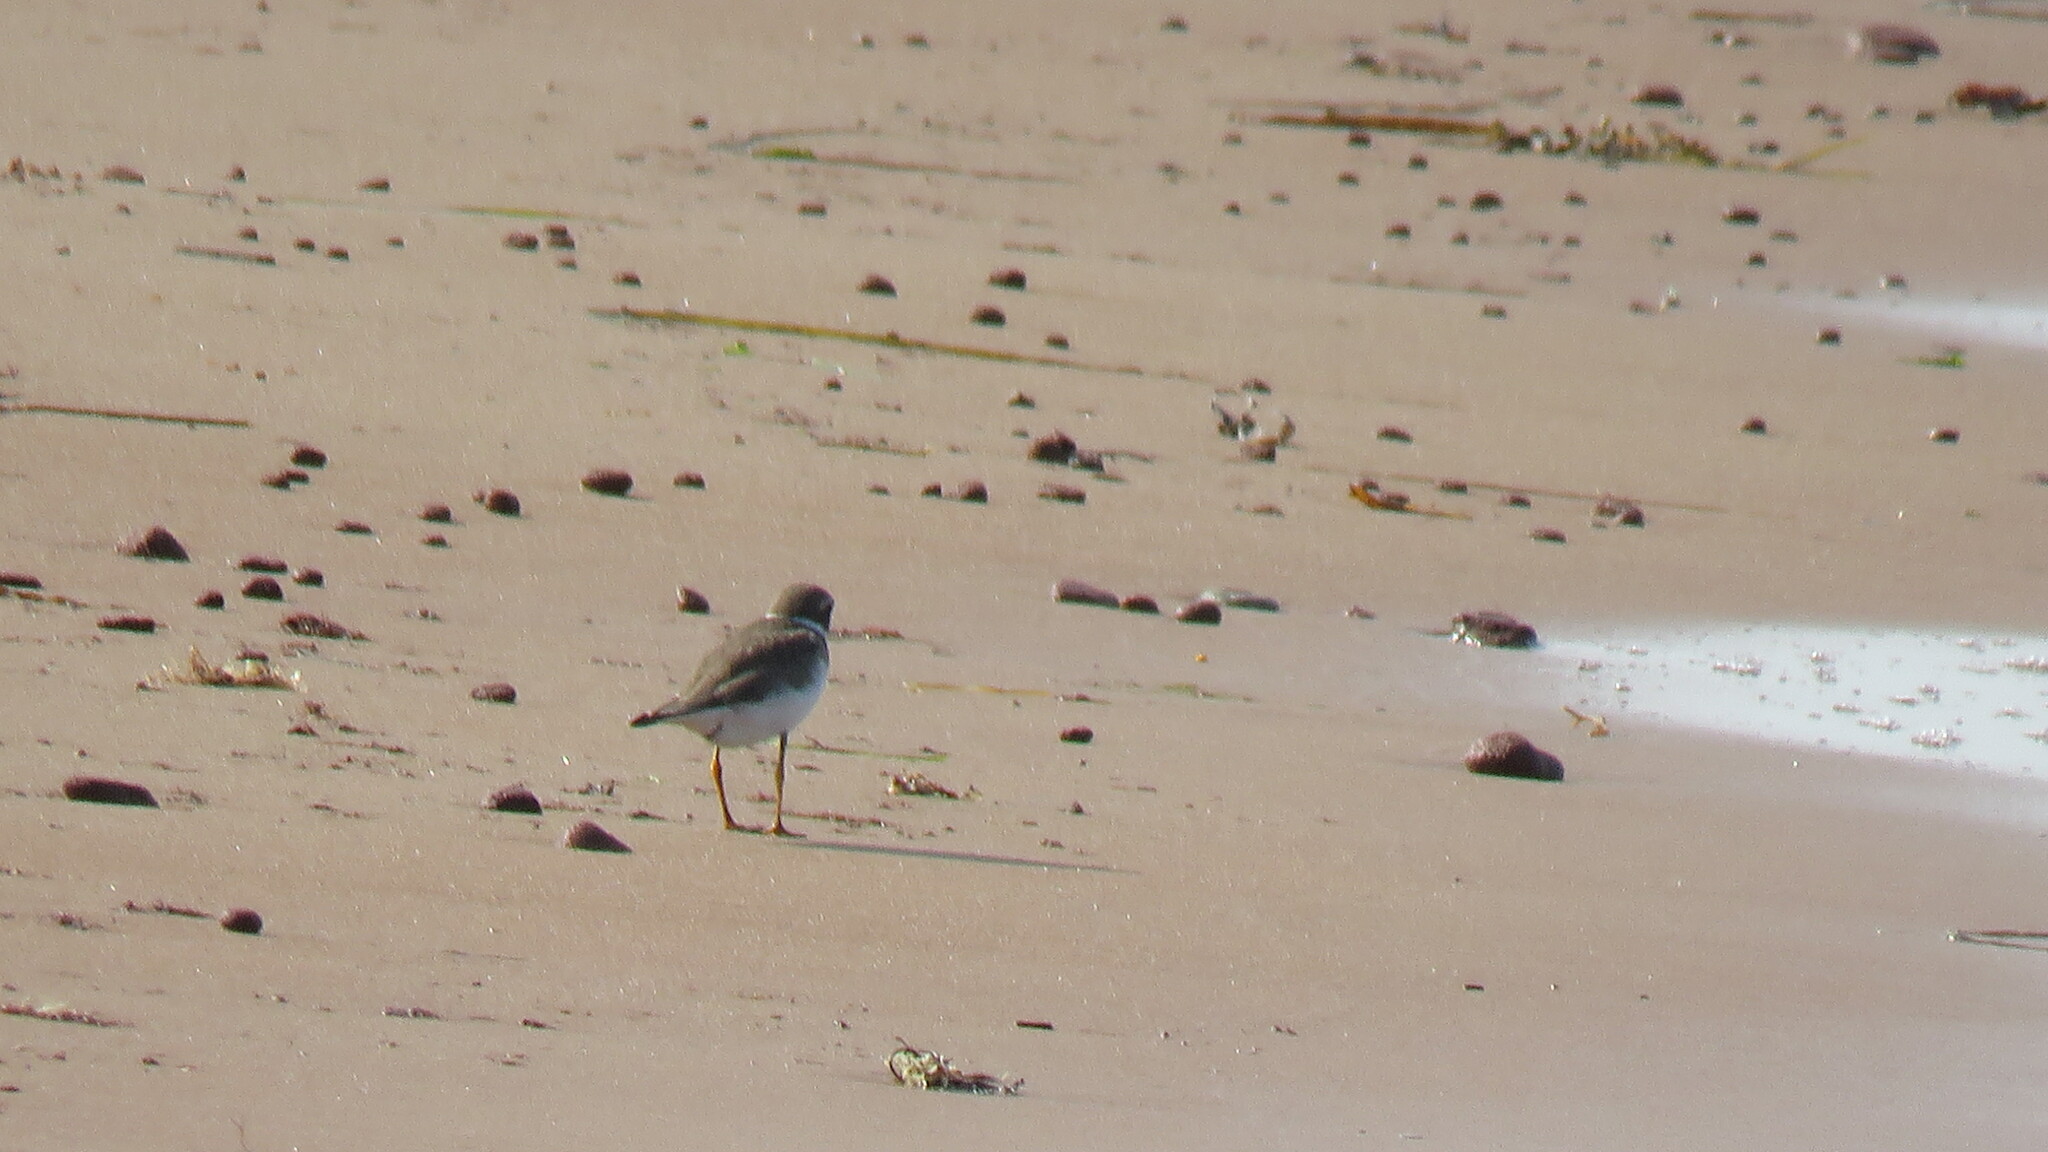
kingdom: Animalia
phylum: Chordata
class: Aves
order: Charadriiformes
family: Charadriidae
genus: Charadrius
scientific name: Charadrius semipalmatus
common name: Semipalmated plover
